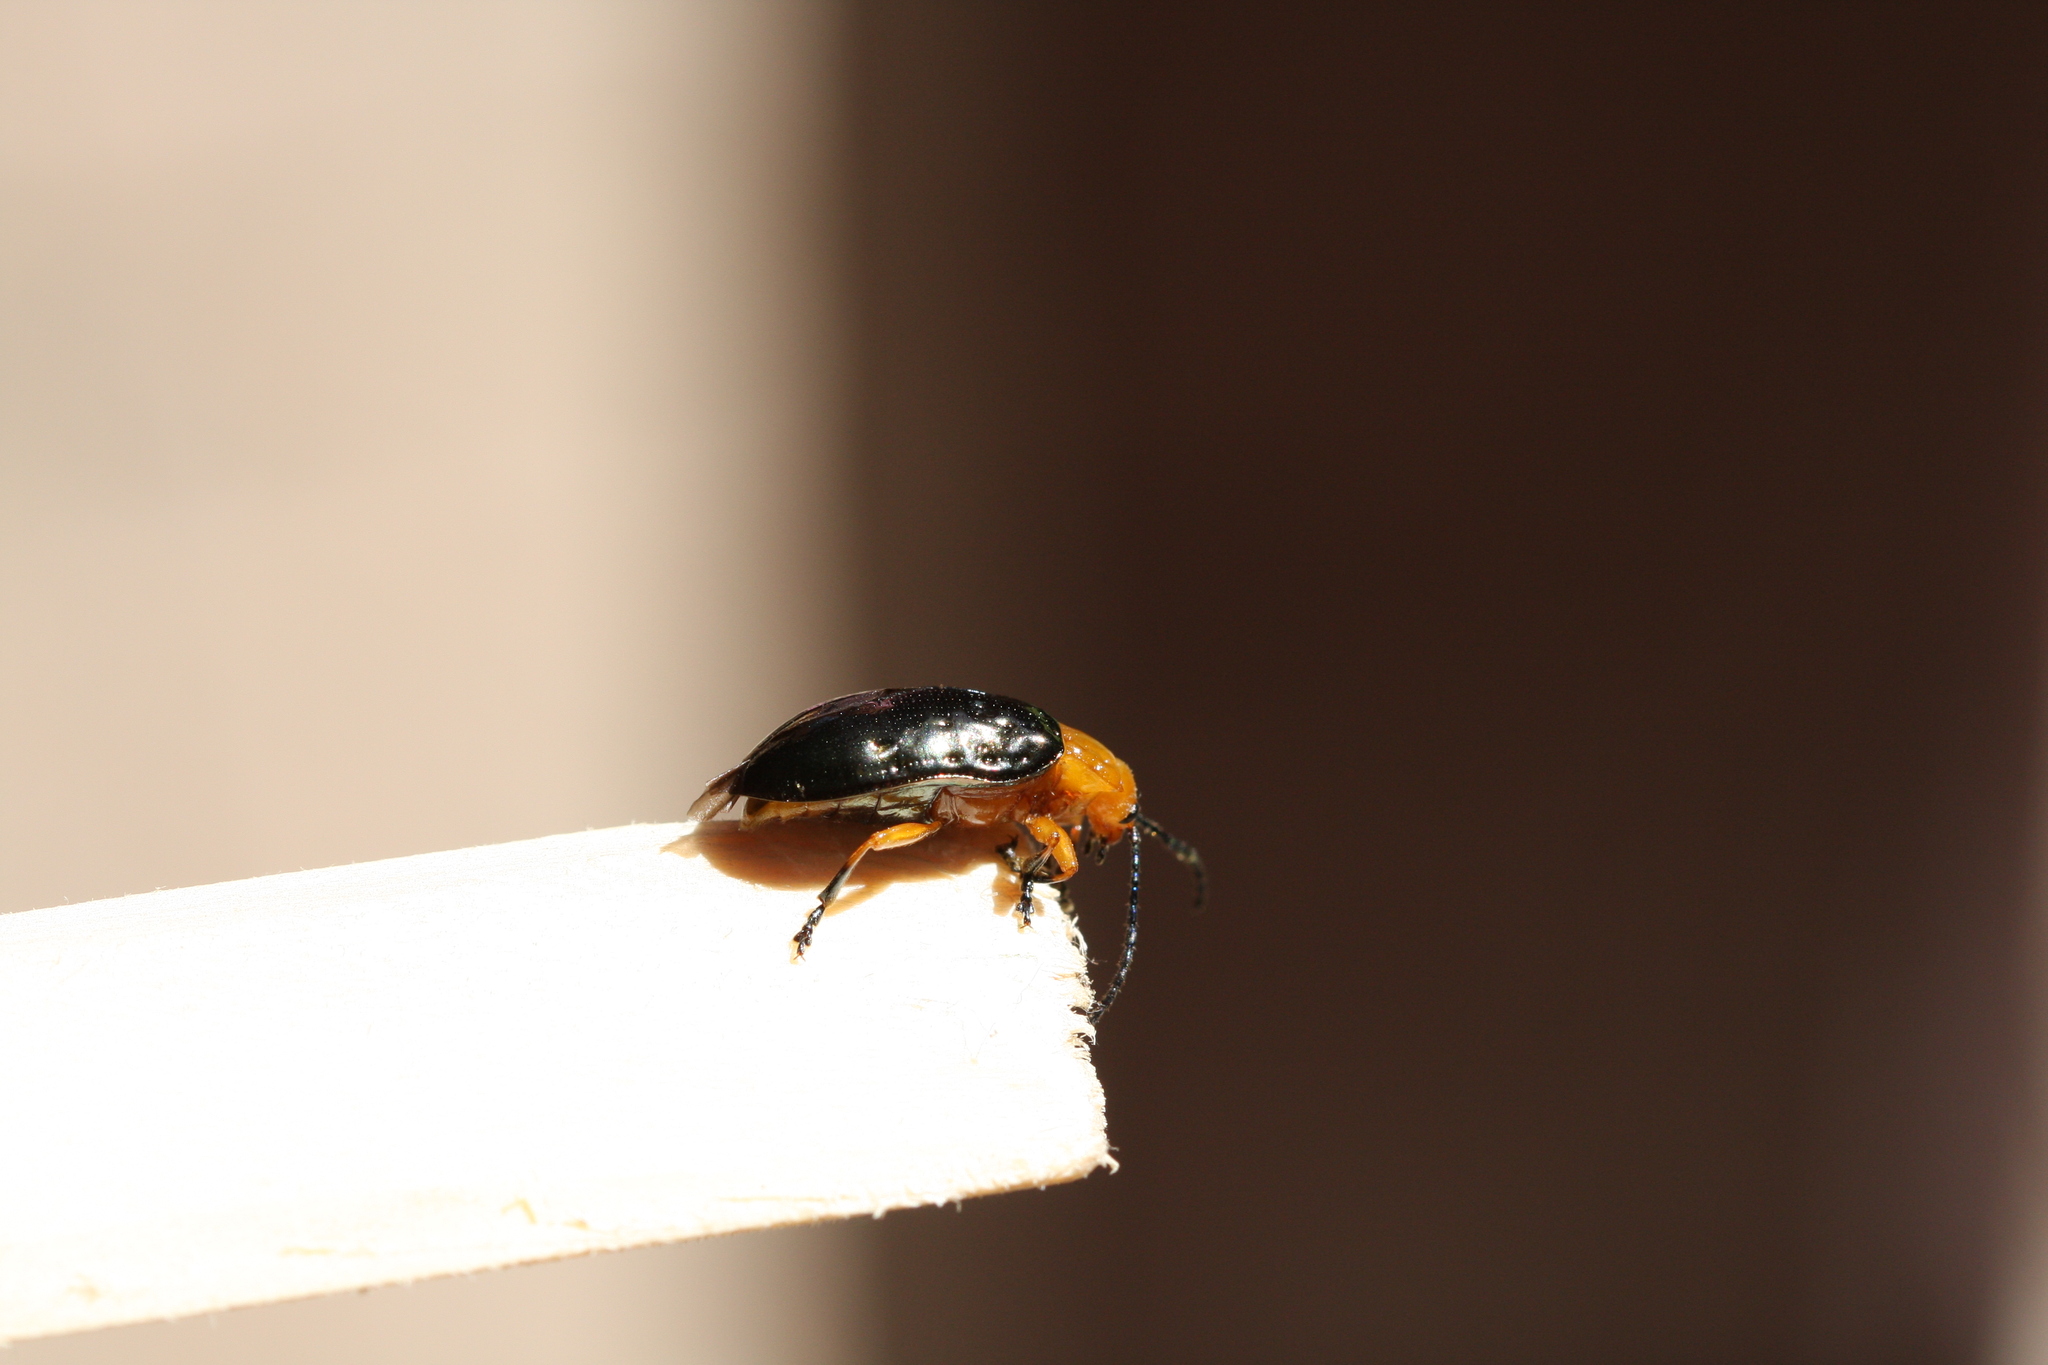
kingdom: Animalia
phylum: Arthropoda
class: Insecta
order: Coleoptera
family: Chrysomelidae
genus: Lamprolina
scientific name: Lamprolina
